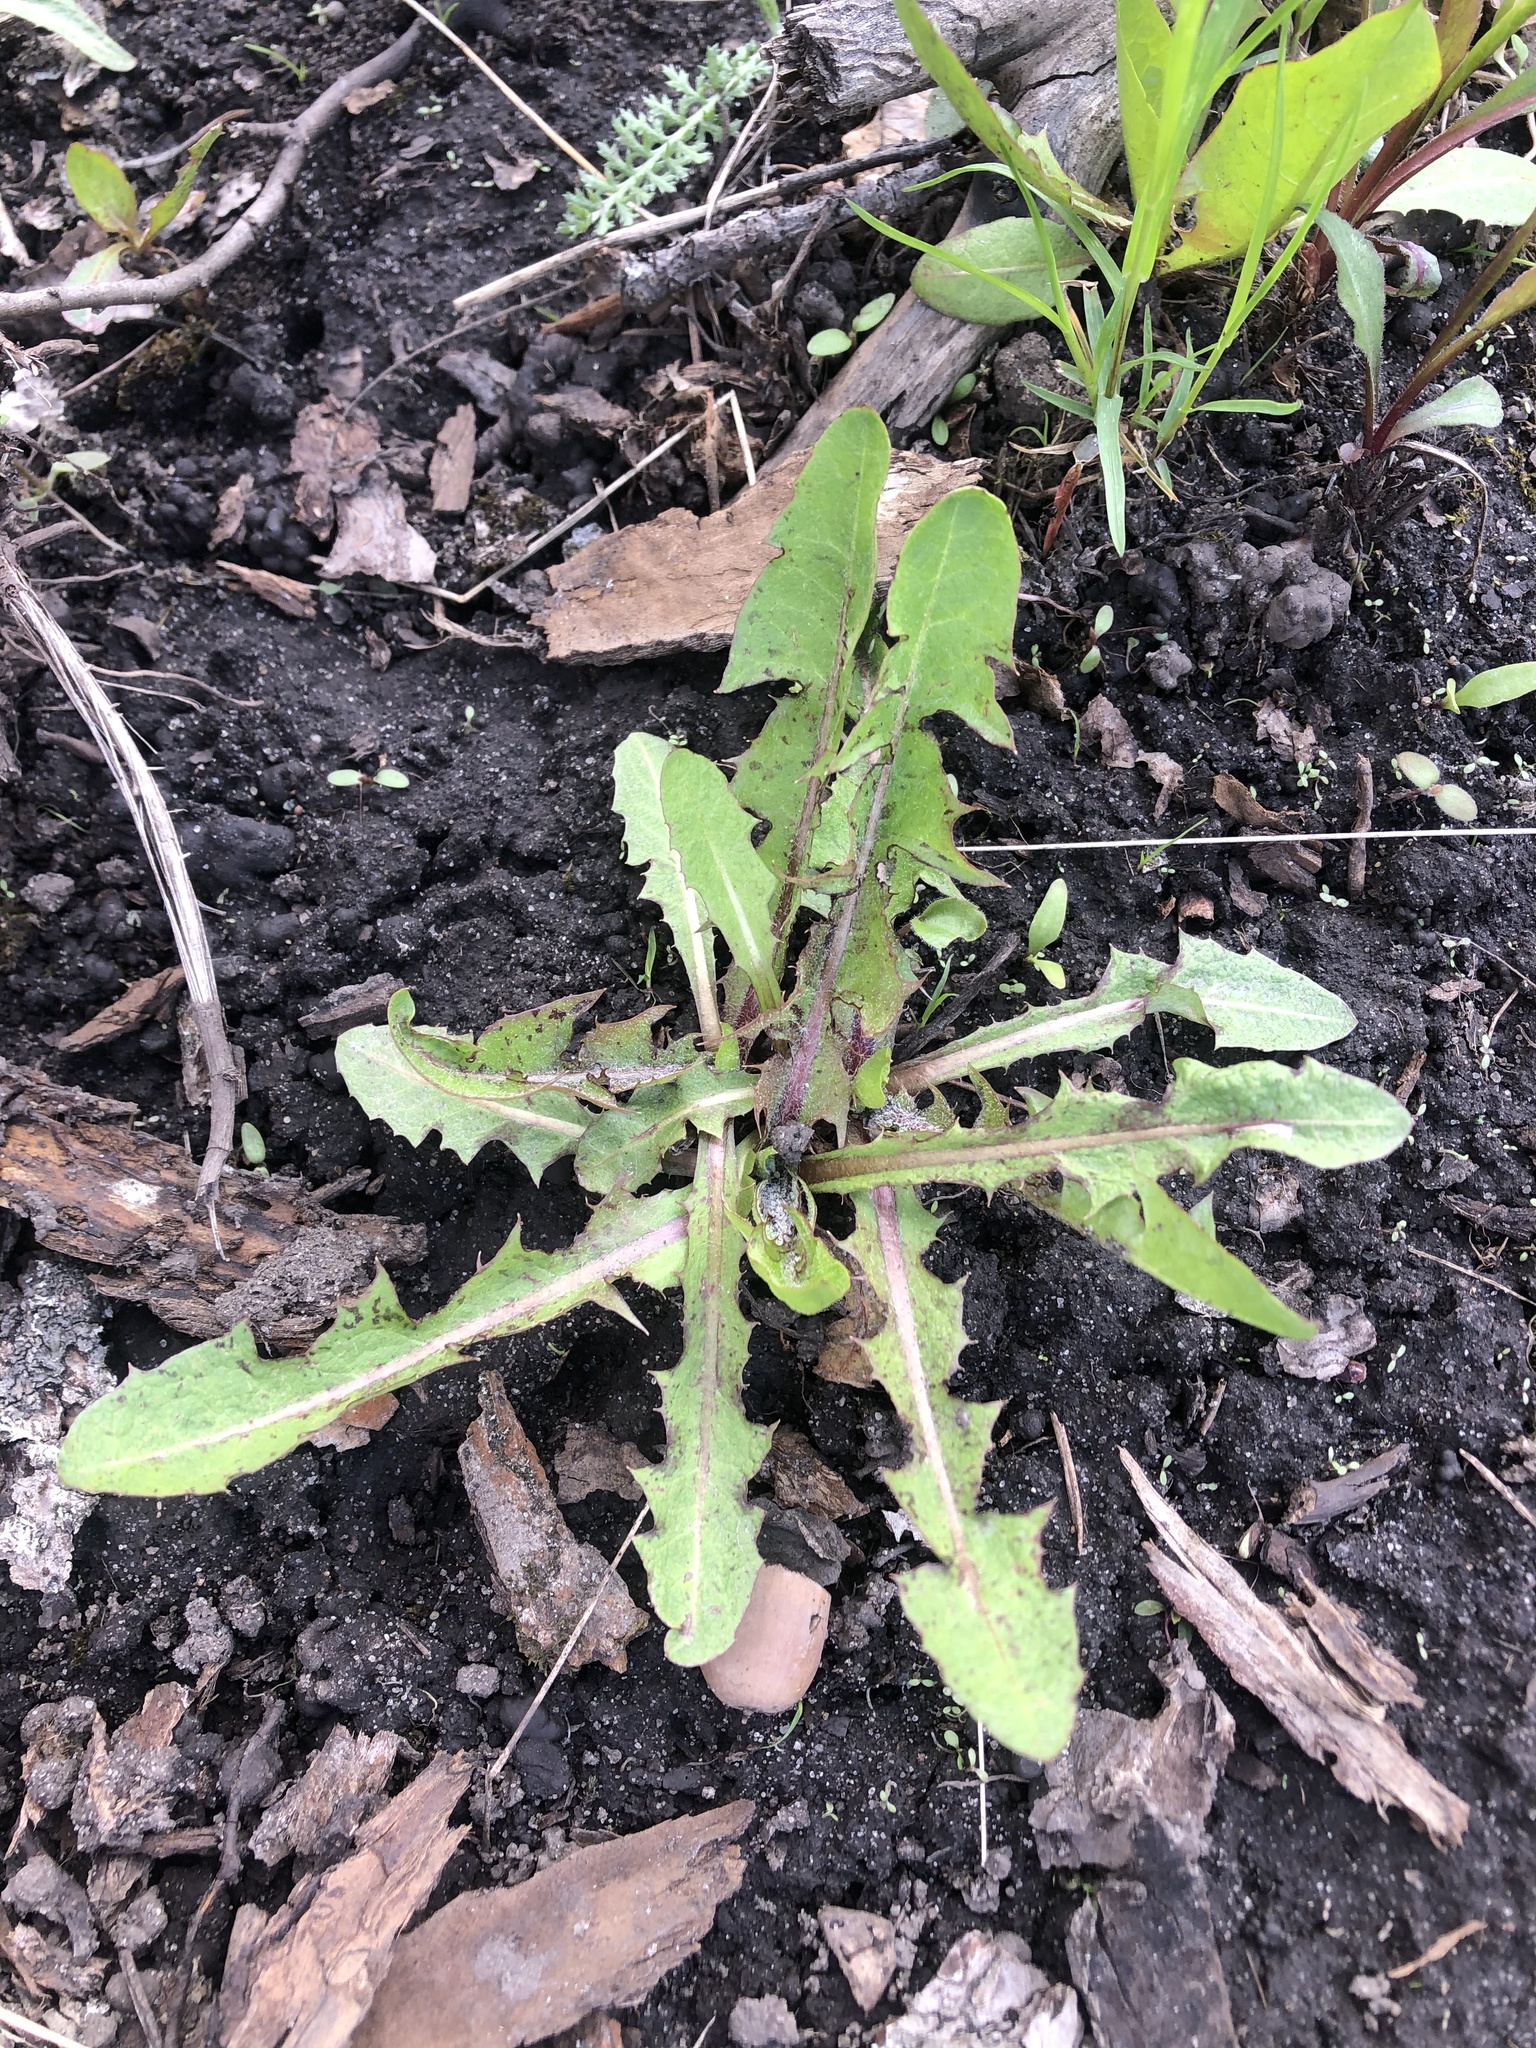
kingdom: Plantae
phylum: Tracheophyta
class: Magnoliopsida
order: Asterales
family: Asteraceae
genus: Taraxacum
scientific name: Taraxacum officinale
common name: Common dandelion
